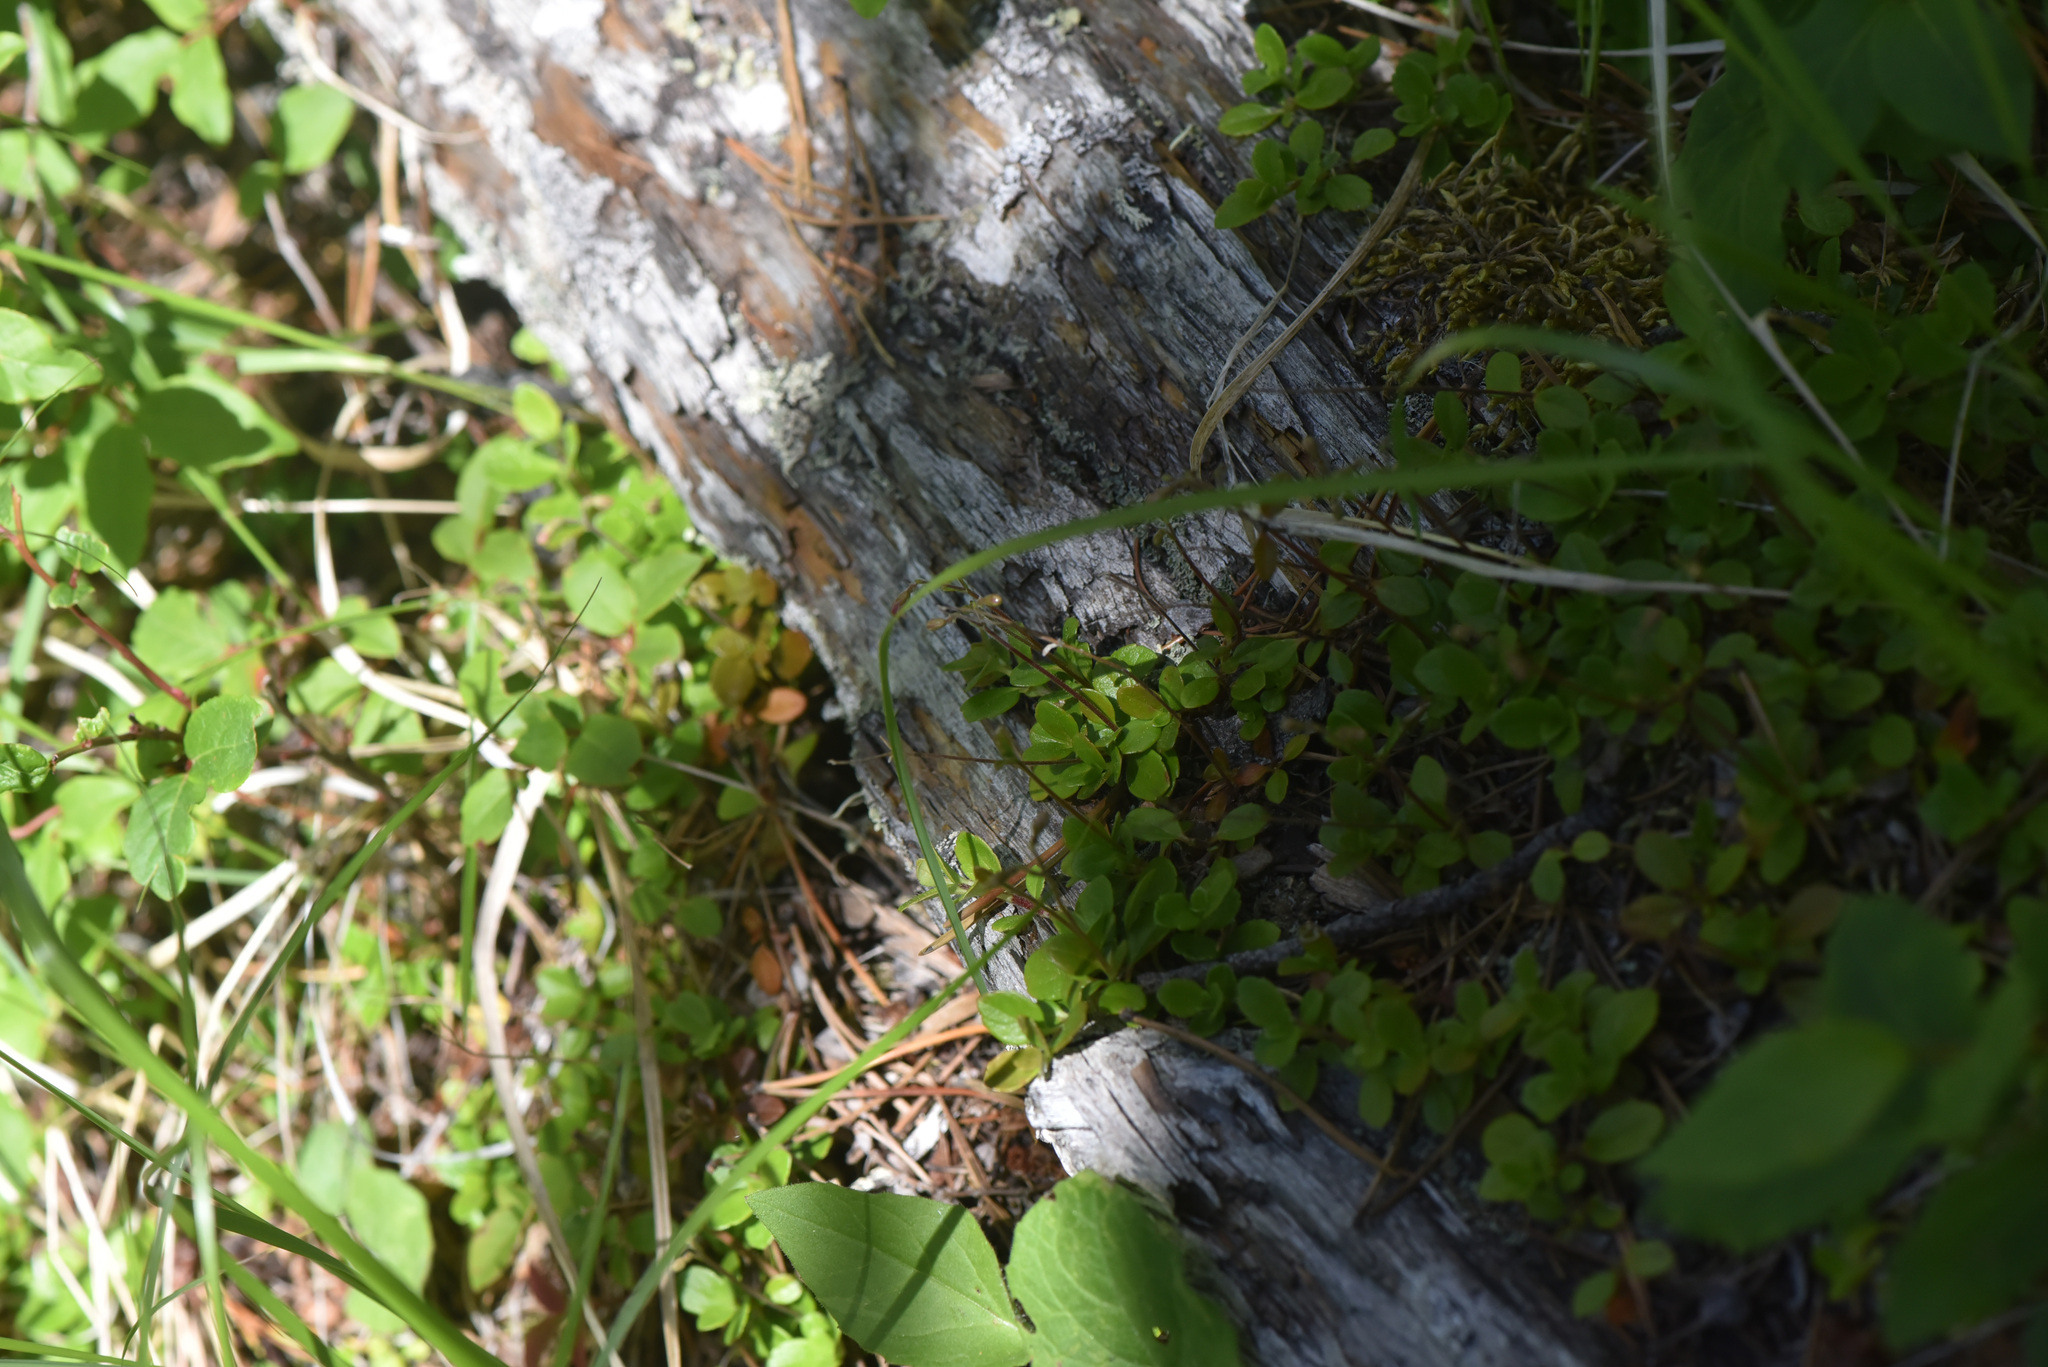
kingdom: Plantae
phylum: Tracheophyta
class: Magnoliopsida
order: Dipsacales
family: Caprifoliaceae
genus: Linnaea
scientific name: Linnaea borealis
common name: Twinflower
